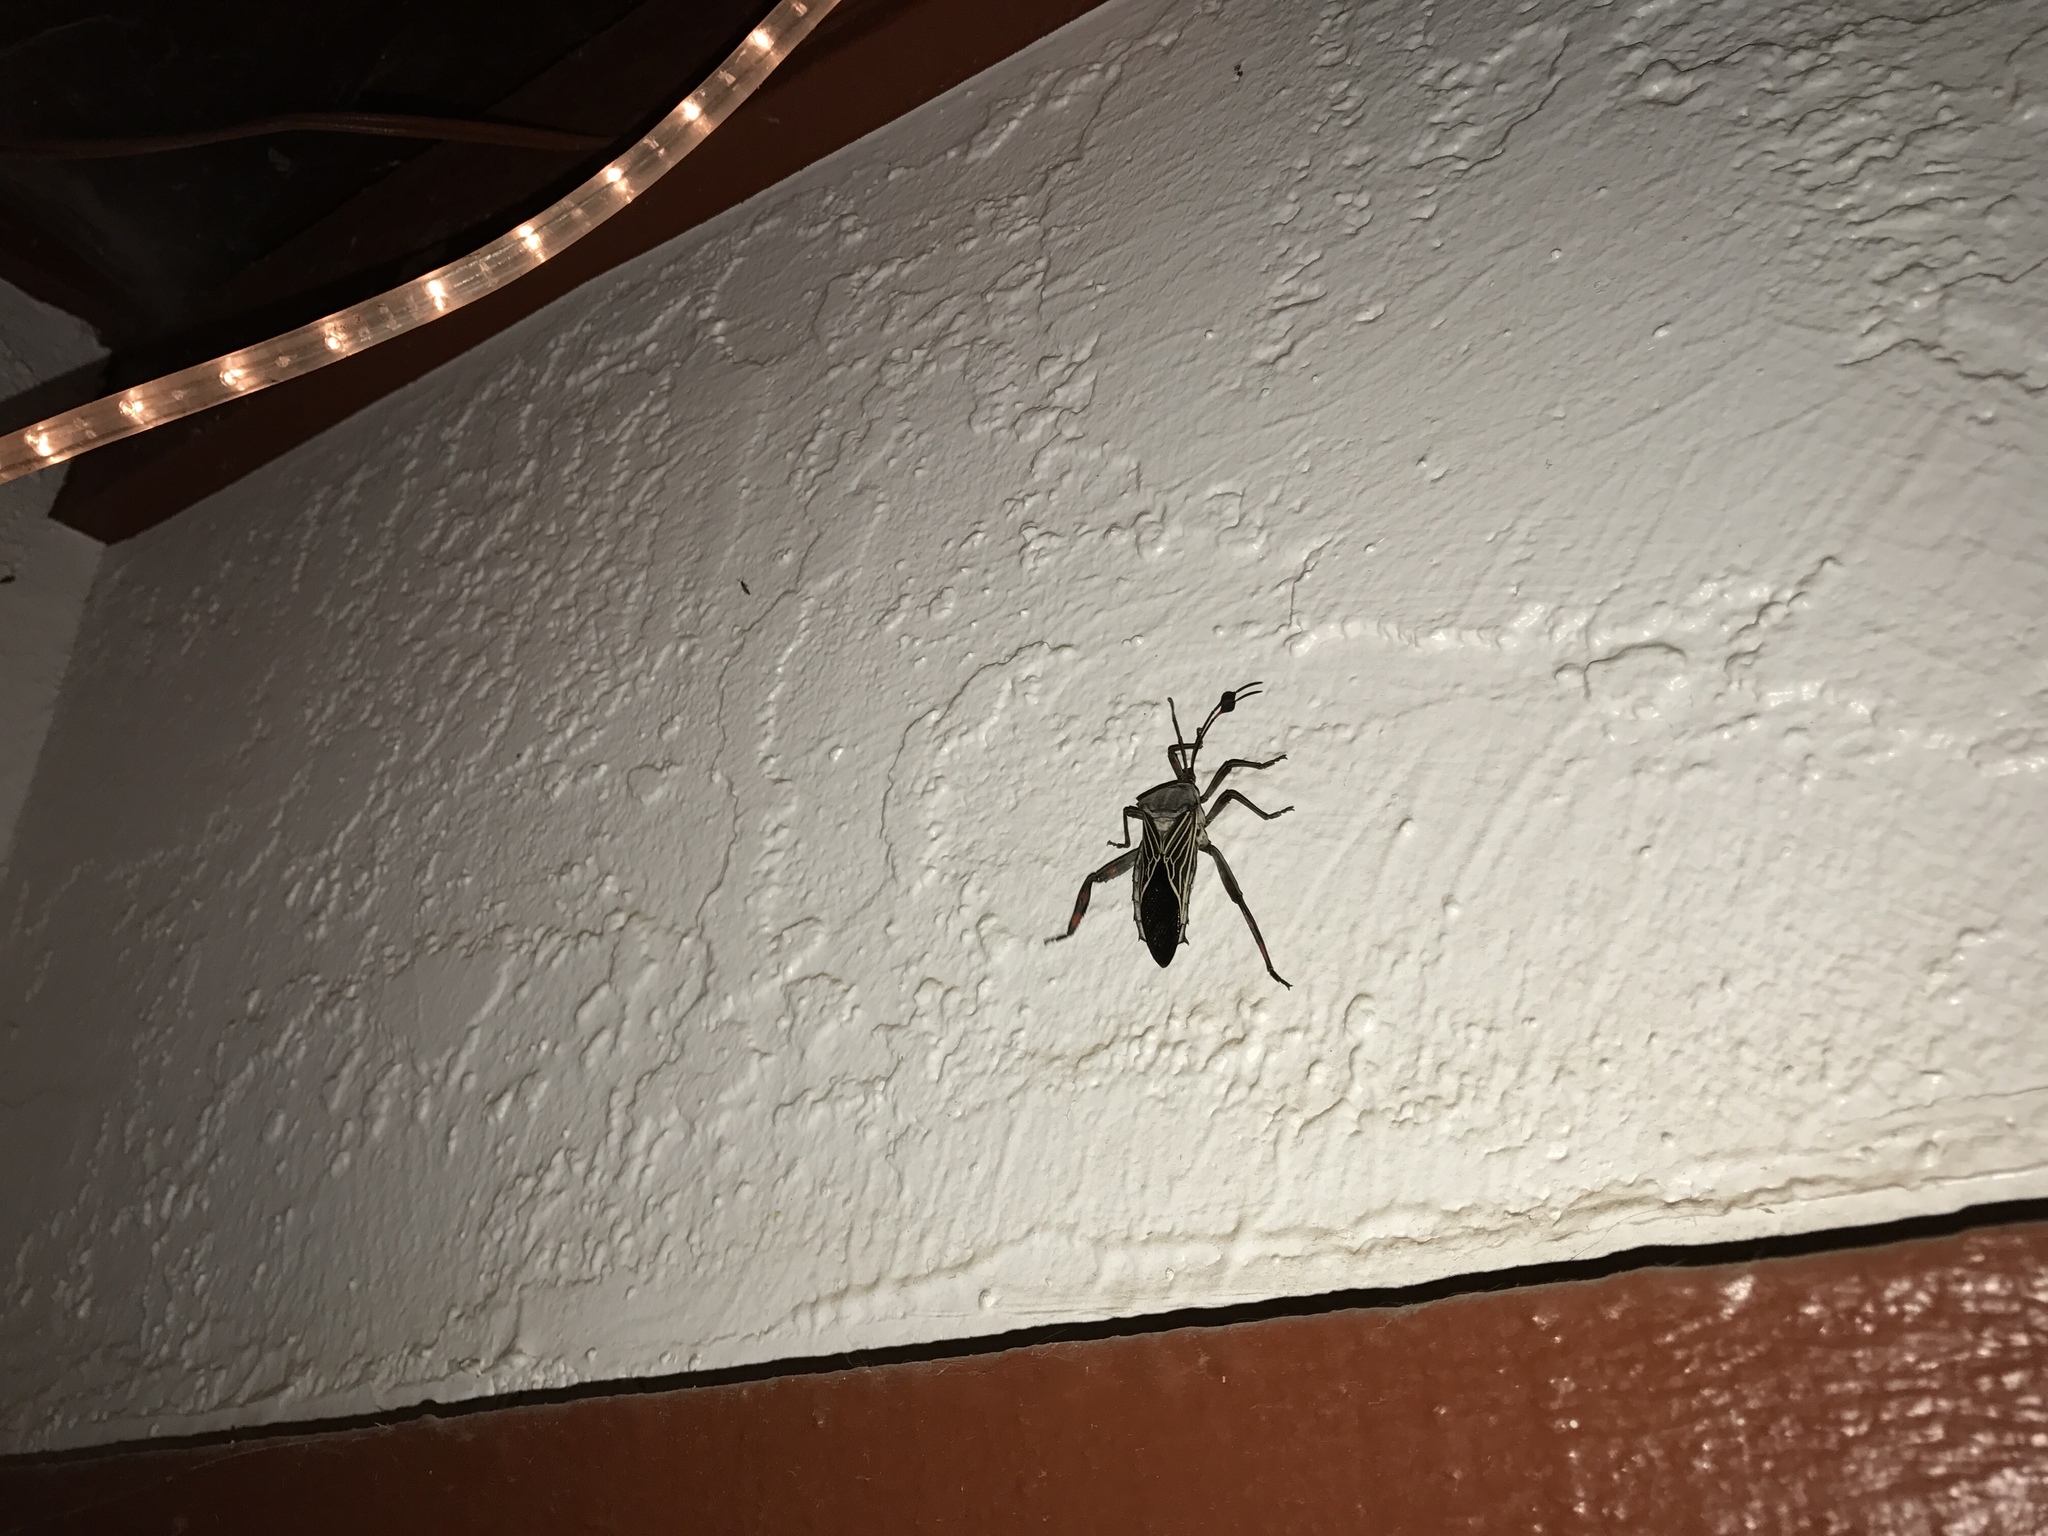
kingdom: Animalia
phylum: Arthropoda
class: Insecta
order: Hemiptera
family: Coreidae
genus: Thasus
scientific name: Thasus neocalifornicus
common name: Giant mesquite bug
